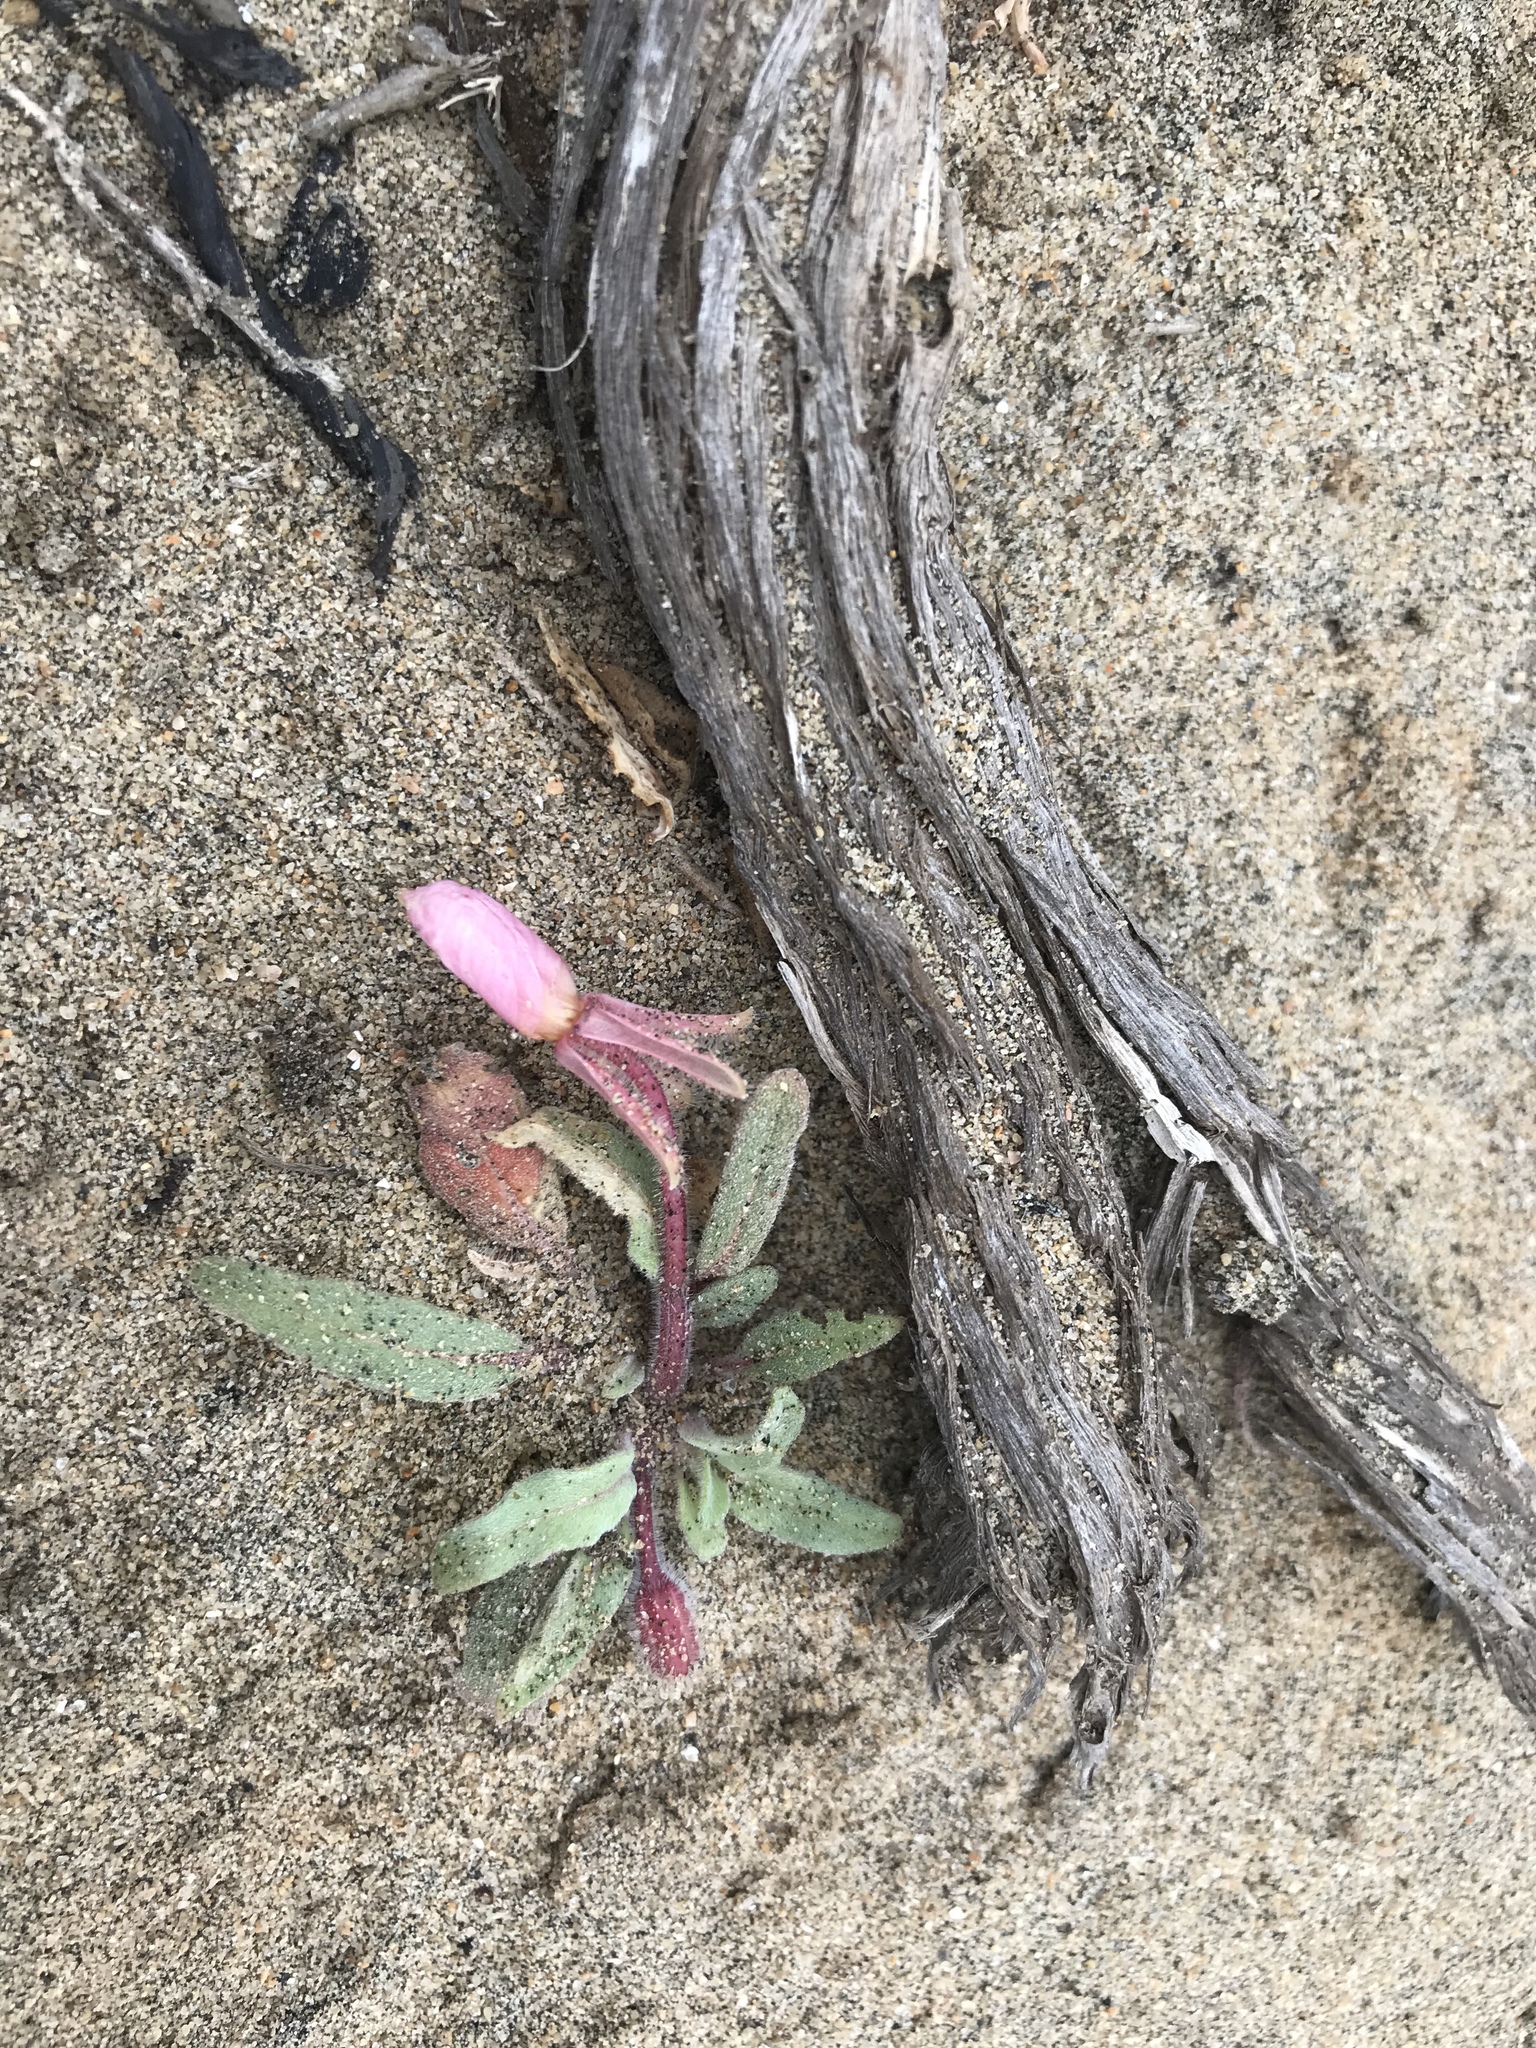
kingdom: Plantae
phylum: Tracheophyta
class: Magnoliopsida
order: Myrtales
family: Onagraceae
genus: Oenothera
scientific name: Oenothera wigginsii
